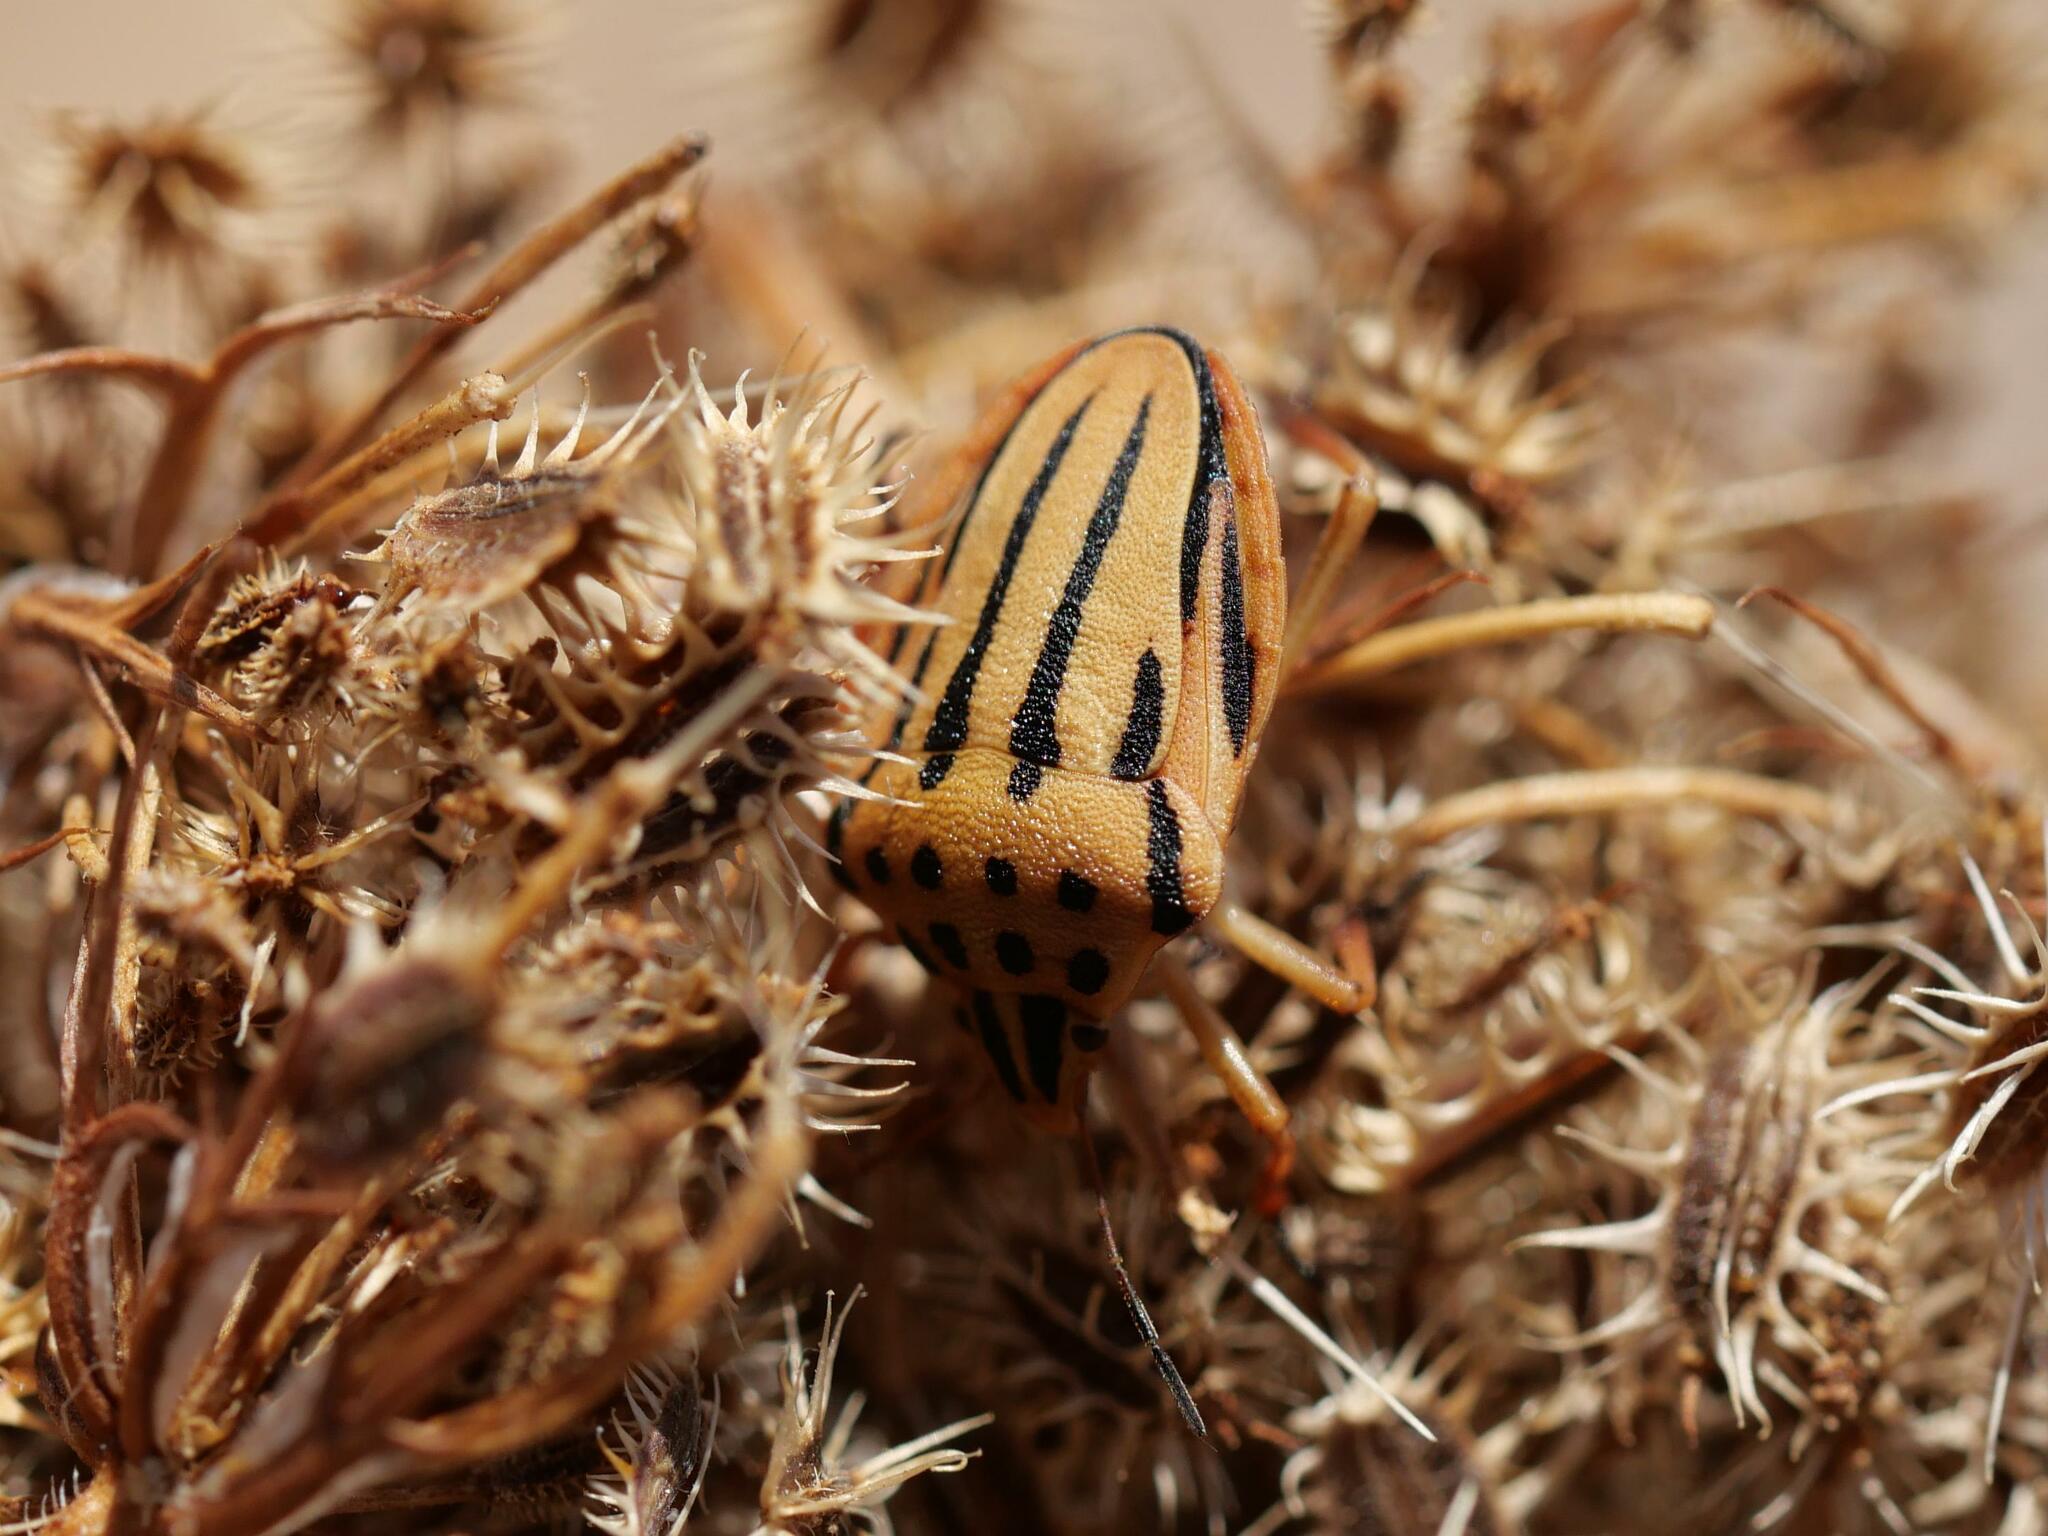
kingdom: Animalia
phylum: Arthropoda
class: Insecta
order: Hemiptera
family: Pentatomidae
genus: Graphosoma
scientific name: Graphosoma semipunctatum
